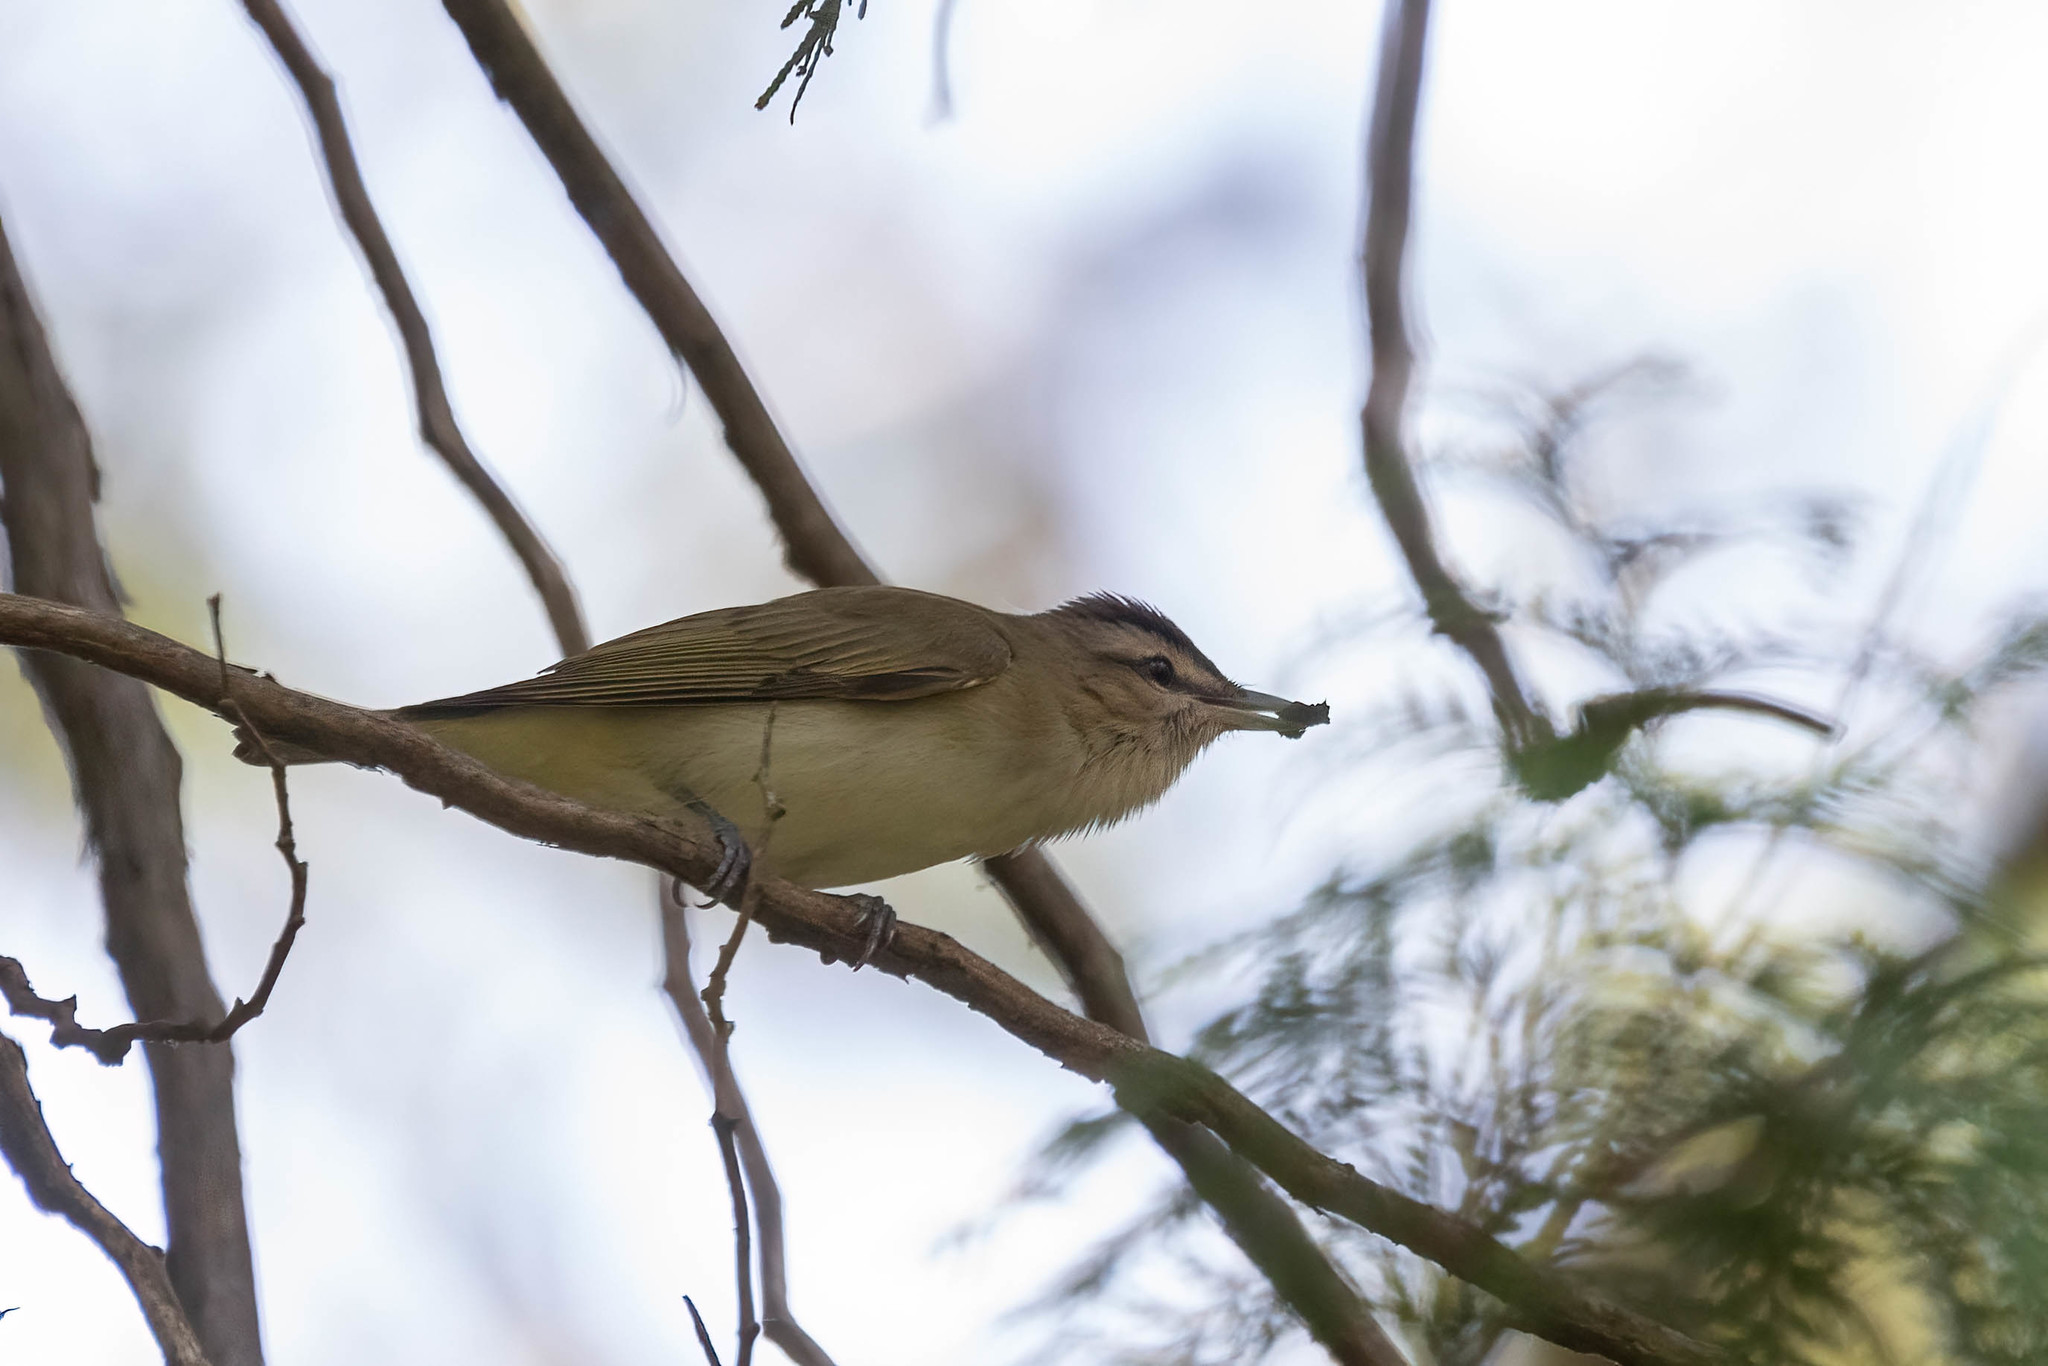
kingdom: Animalia
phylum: Chordata
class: Aves
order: Passeriformes
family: Vireonidae
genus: Vireo
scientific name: Vireo olivaceus
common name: Red-eyed vireo
